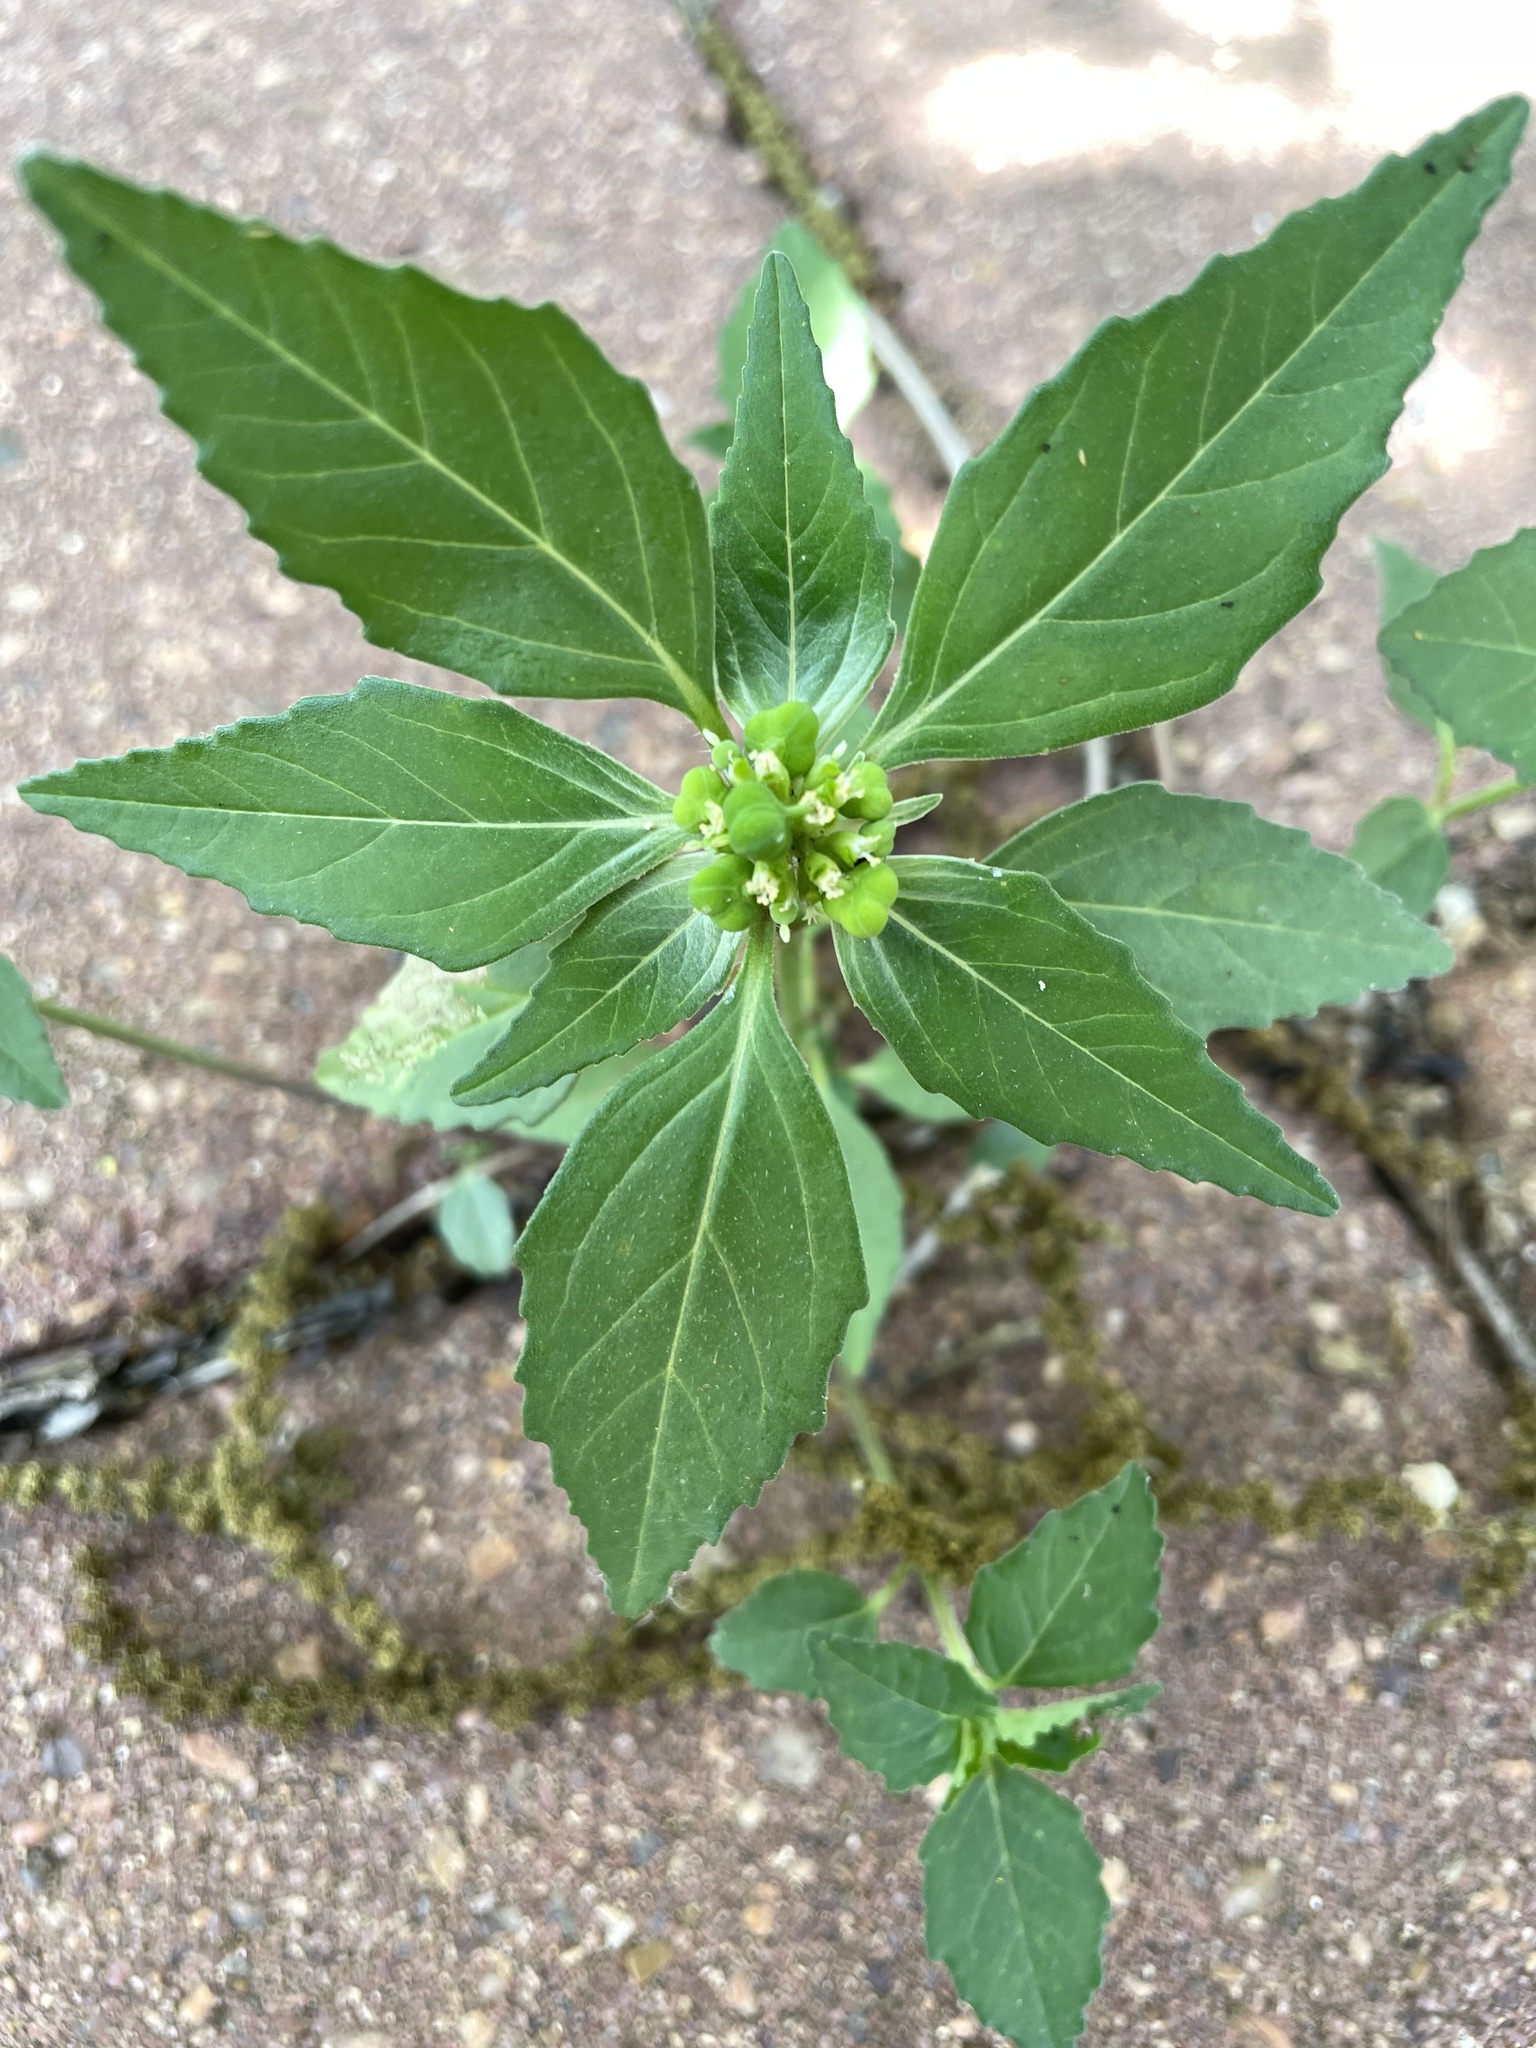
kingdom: Plantae
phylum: Tracheophyta
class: Magnoliopsida
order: Malpighiales
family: Euphorbiaceae
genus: Euphorbia
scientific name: Euphorbia dentata
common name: Dentate spurge
